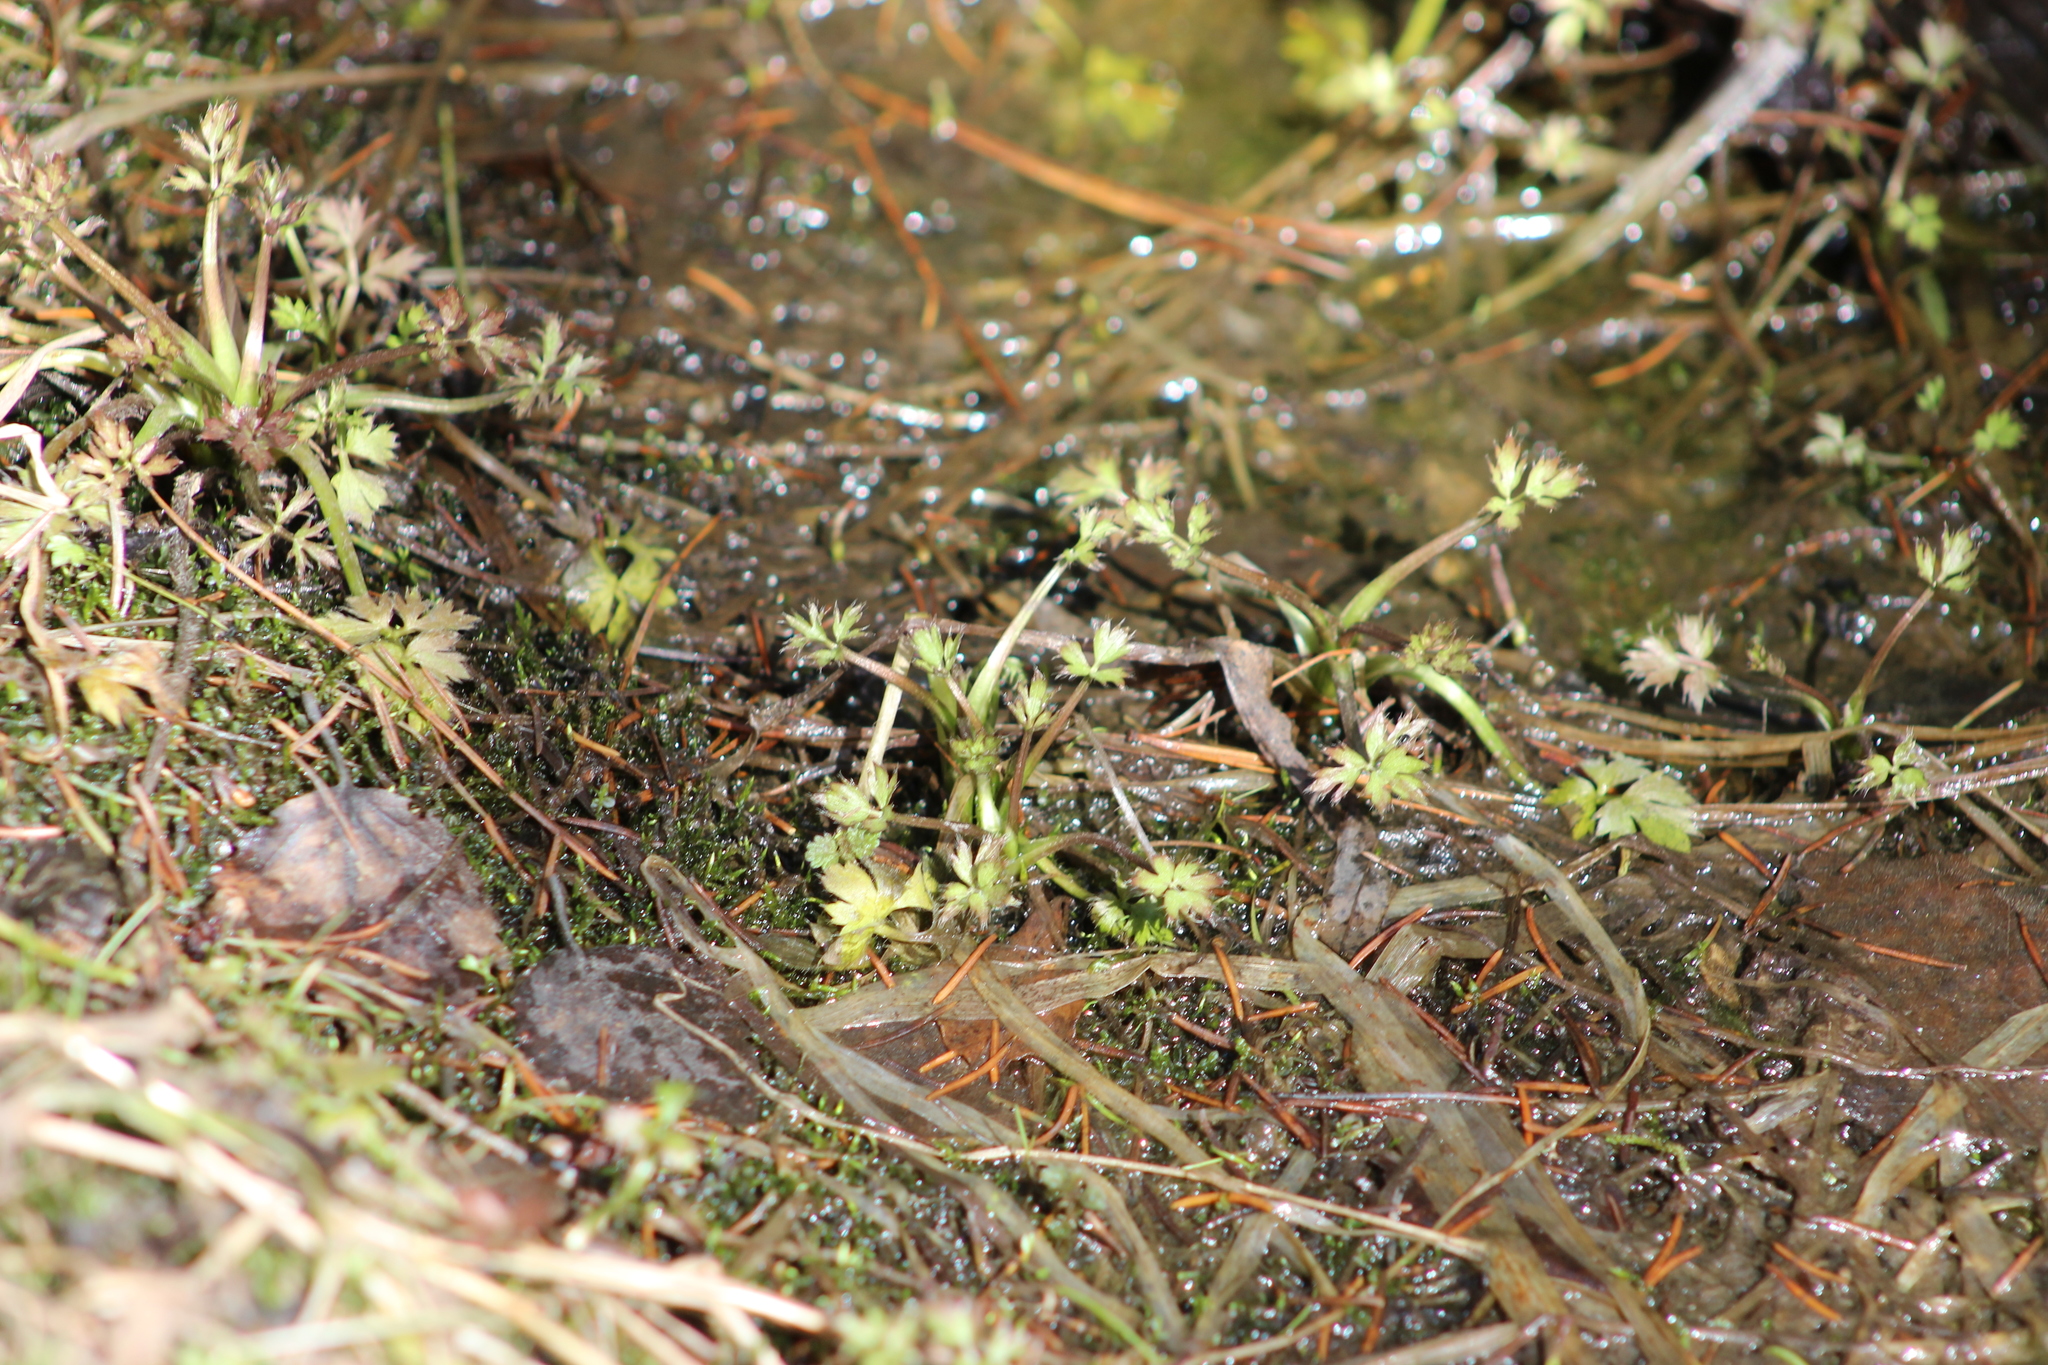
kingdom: Plantae
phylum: Tracheophyta
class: Magnoliopsida
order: Ranunculales
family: Ranunculaceae
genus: Ranunculus
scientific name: Ranunculus repens
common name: Creeping buttercup
